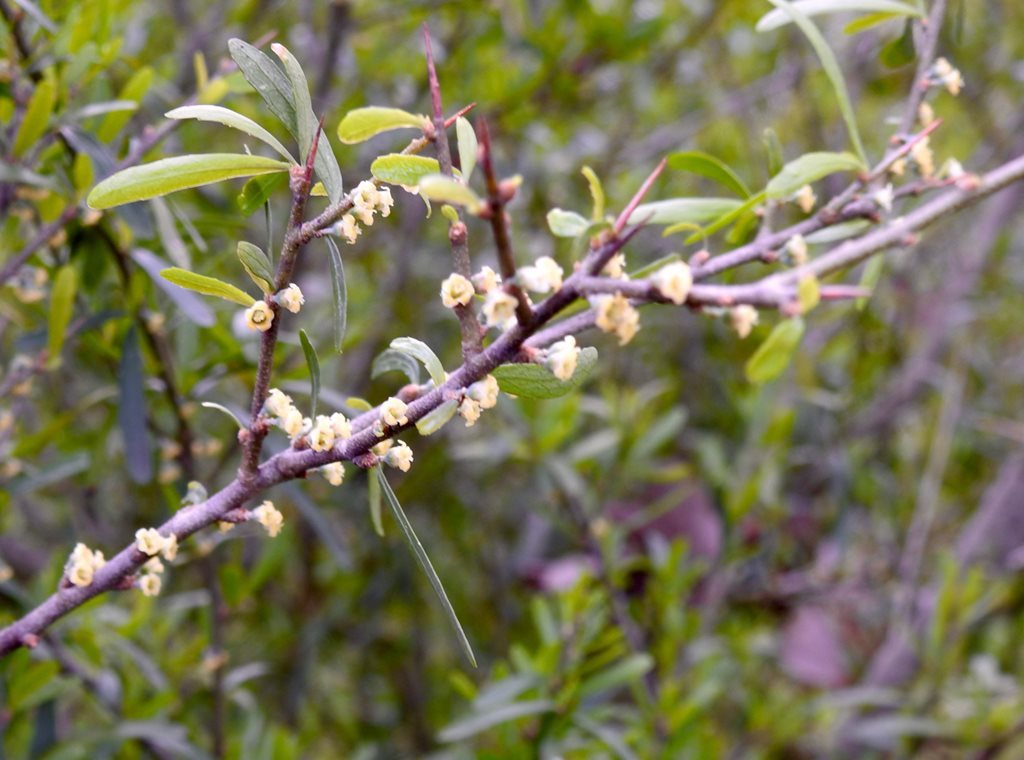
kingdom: Plantae
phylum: Tracheophyta
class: Magnoliopsida
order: Malpighiales
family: Violaceae
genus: Melicytus
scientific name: Melicytus dentatus
